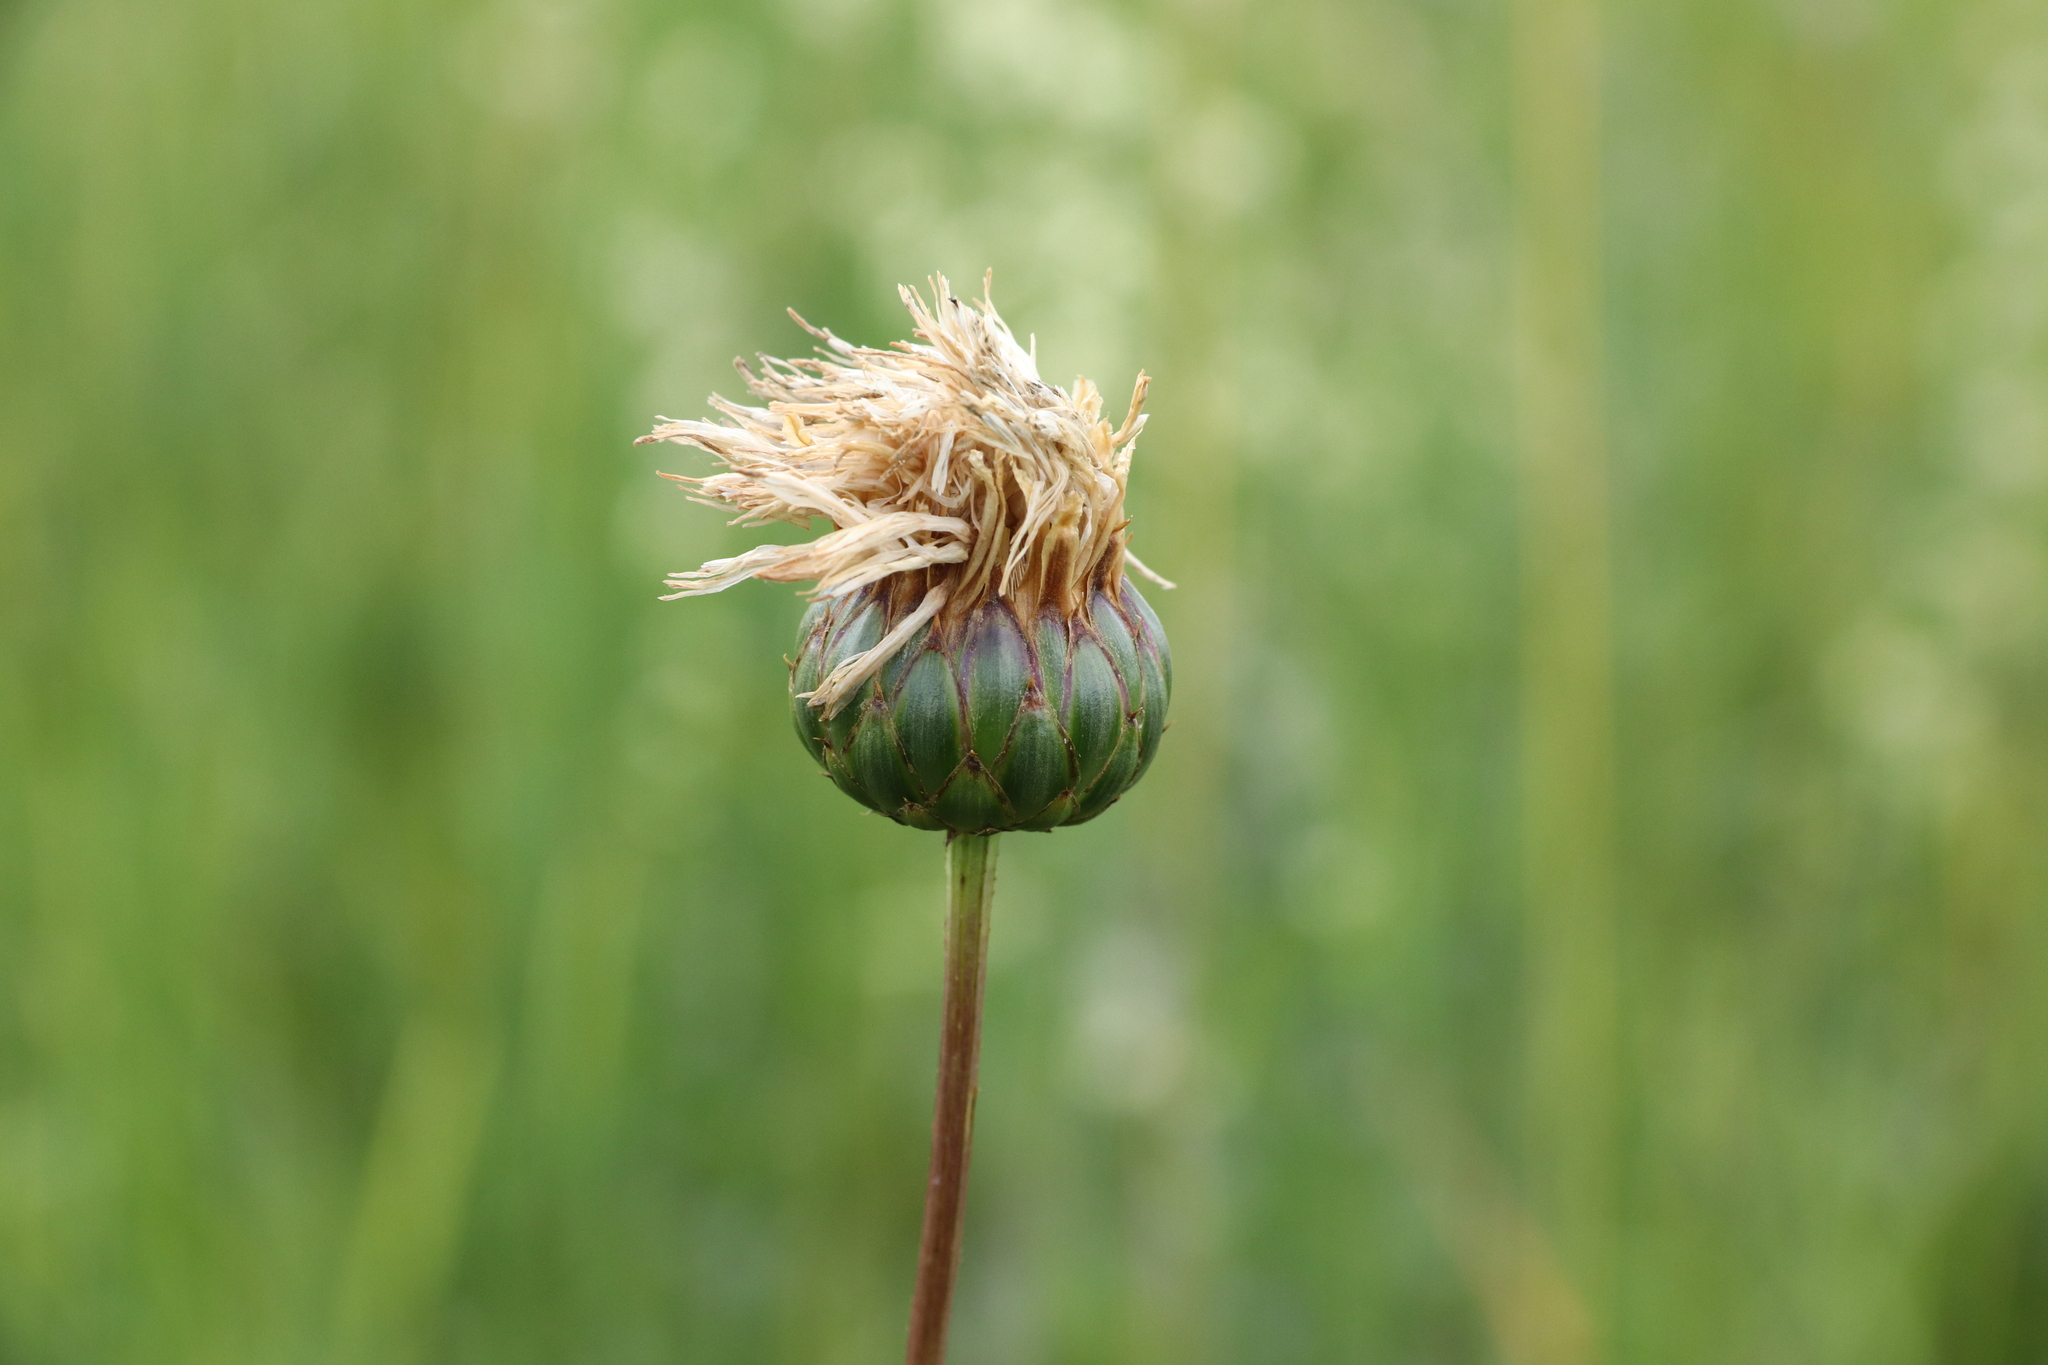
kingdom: Plantae
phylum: Tracheophyta
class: Magnoliopsida
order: Asterales
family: Asteraceae
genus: Klasea
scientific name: Klasea lycopifolia
